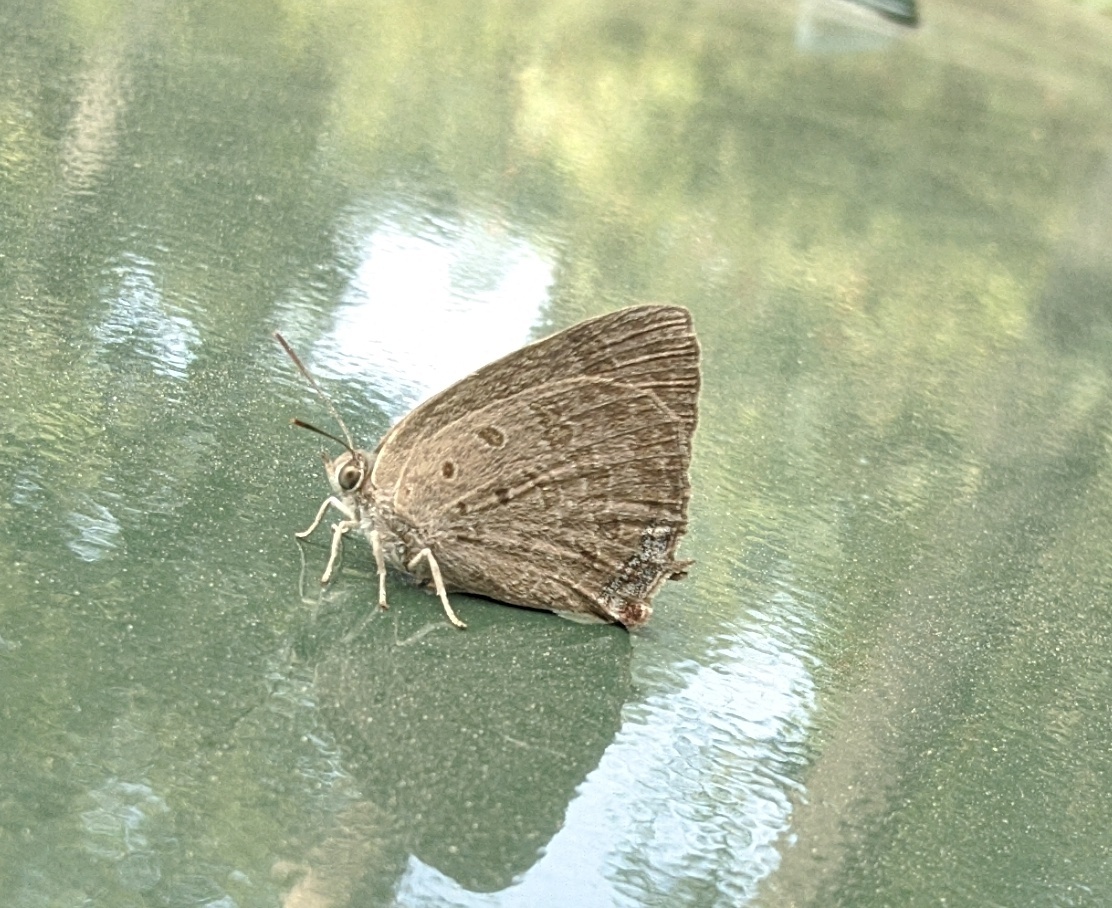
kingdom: Animalia
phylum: Arthropoda
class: Insecta
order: Lepidoptera
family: Lycaenidae
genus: Arhopala
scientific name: Arhopala atrax
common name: Indian oakblue
